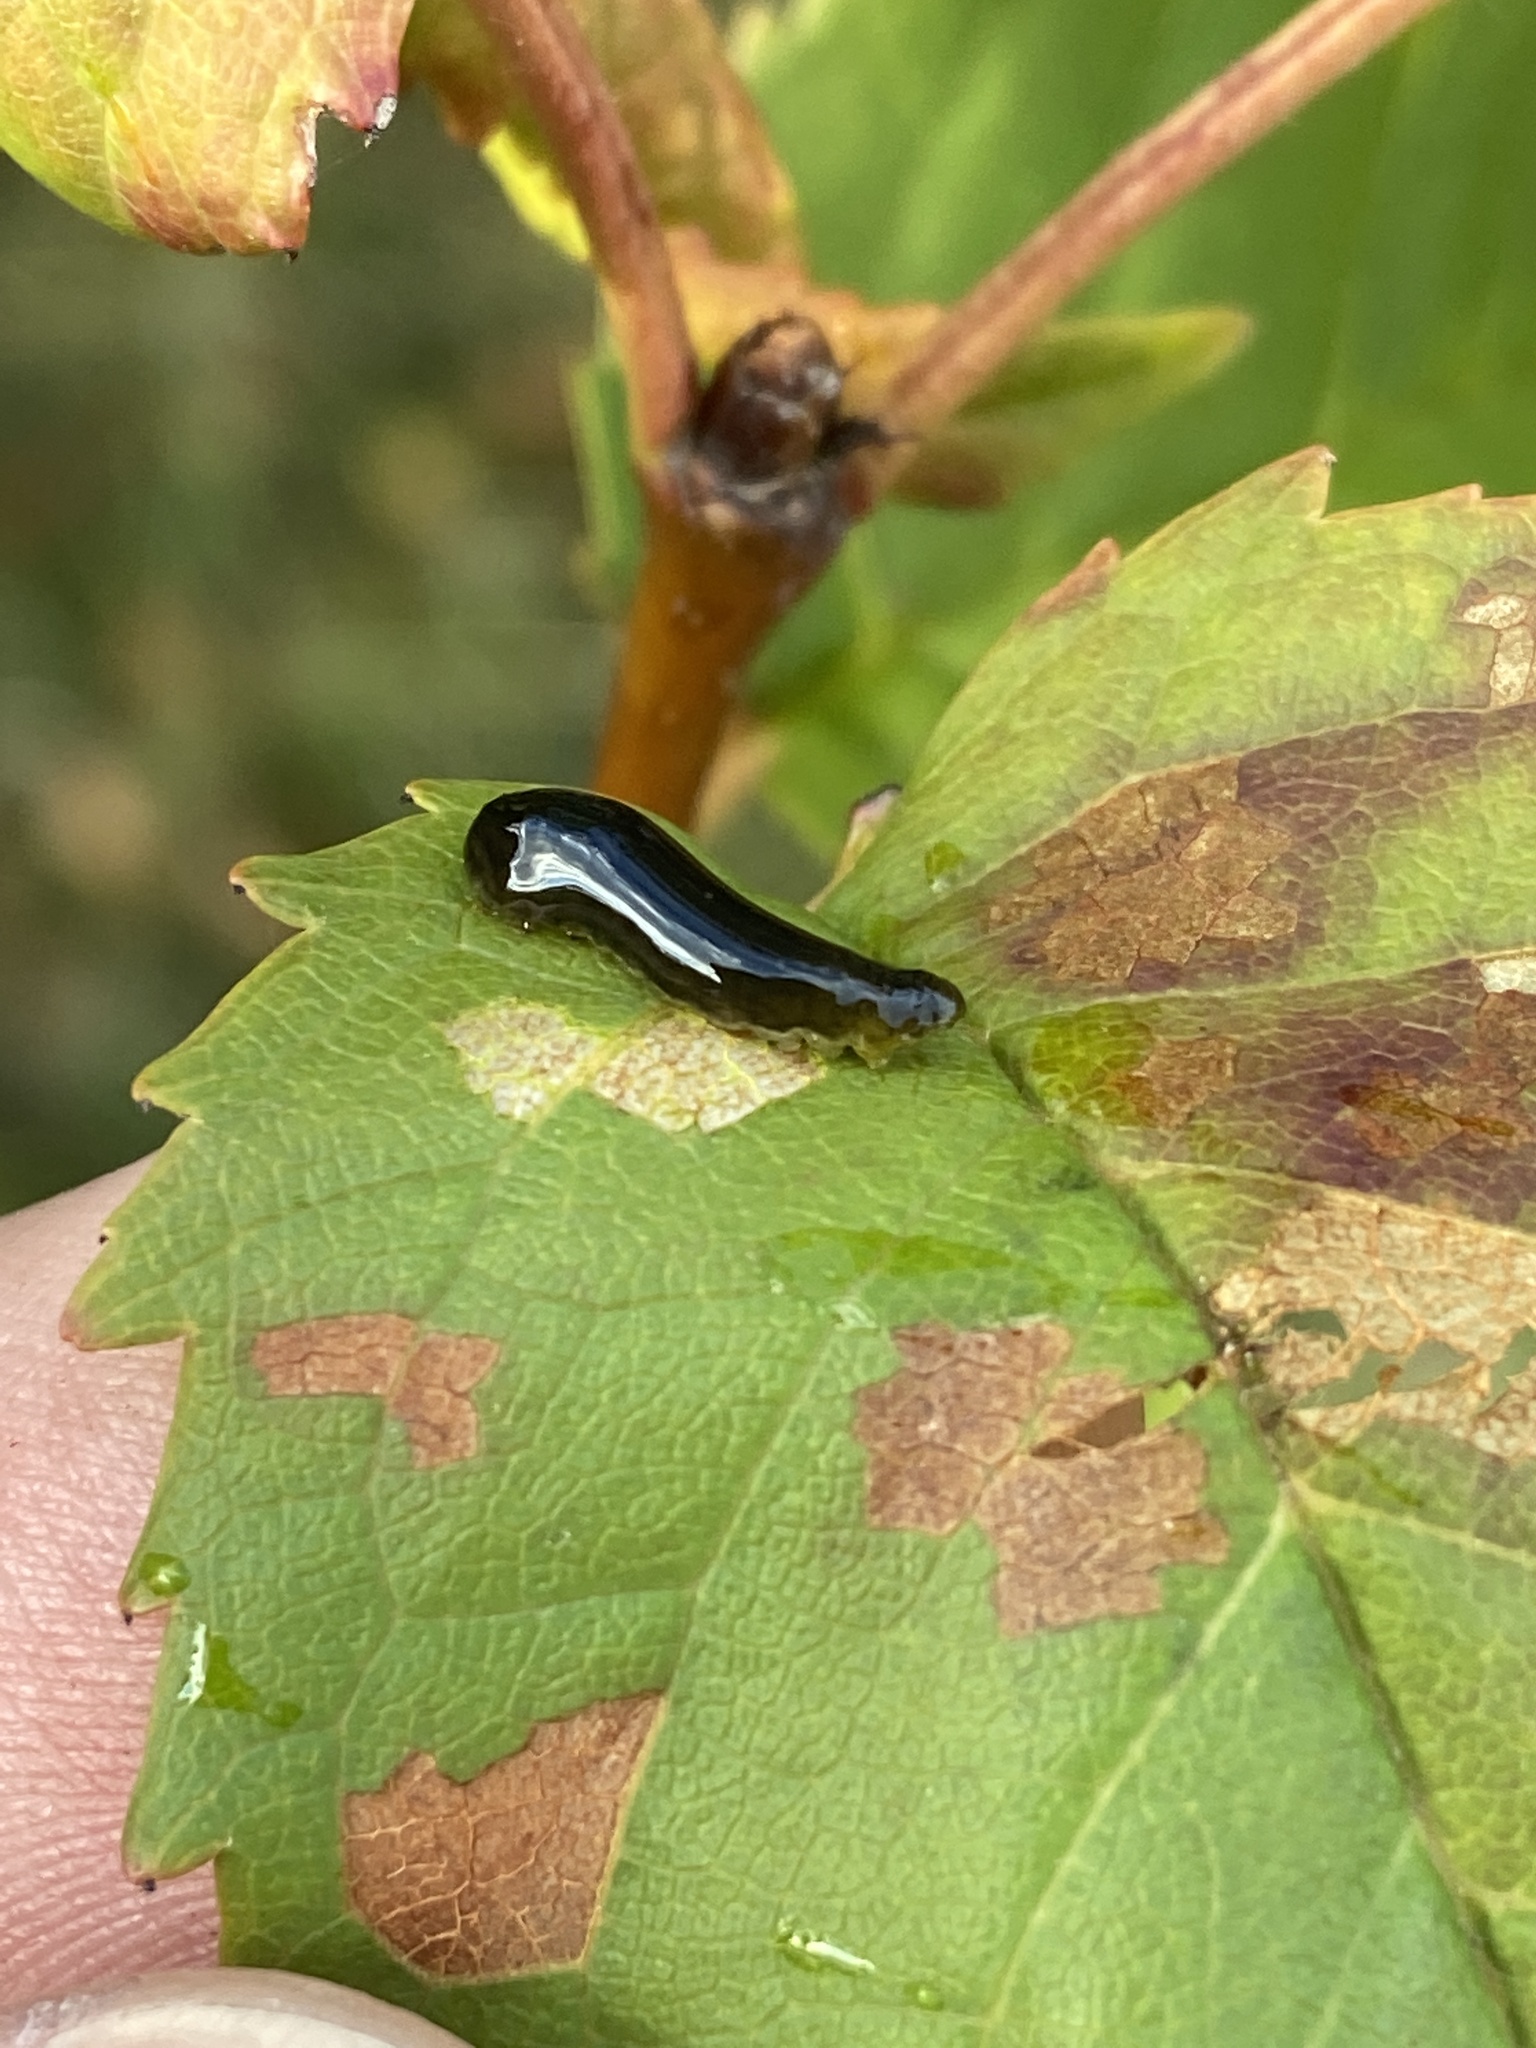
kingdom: Animalia
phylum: Arthropoda
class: Insecta
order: Hymenoptera
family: Tenthredinidae
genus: Caliroa
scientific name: Caliroa cerasi
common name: Pear sawfly
